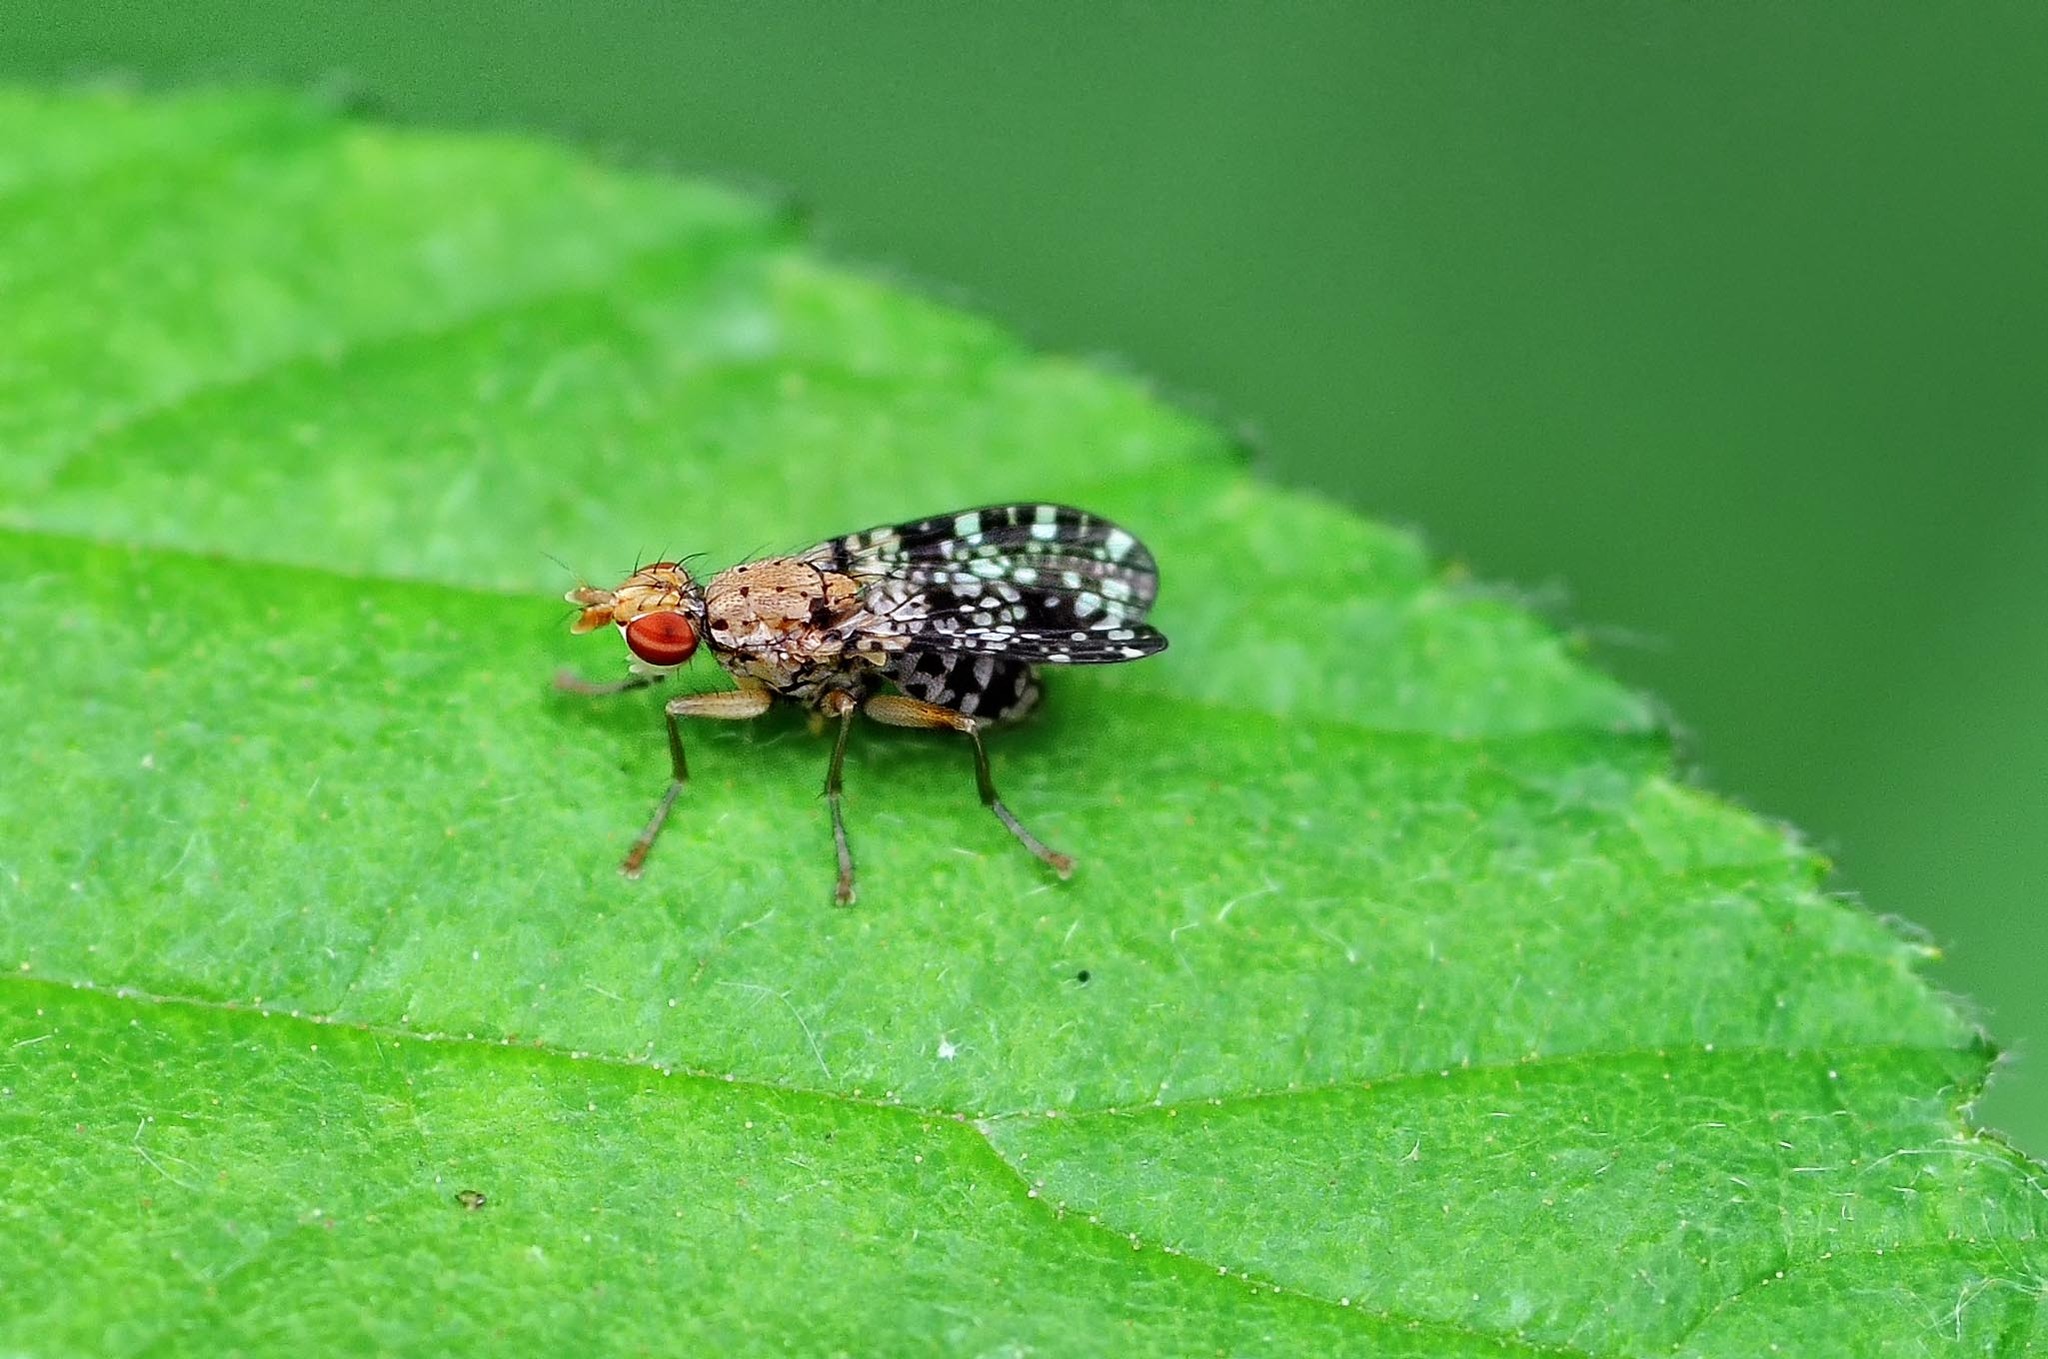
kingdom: Animalia
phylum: Arthropoda
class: Insecta
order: Diptera
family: Sciomyzidae
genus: Trypetoptera
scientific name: Trypetoptera punctulata
